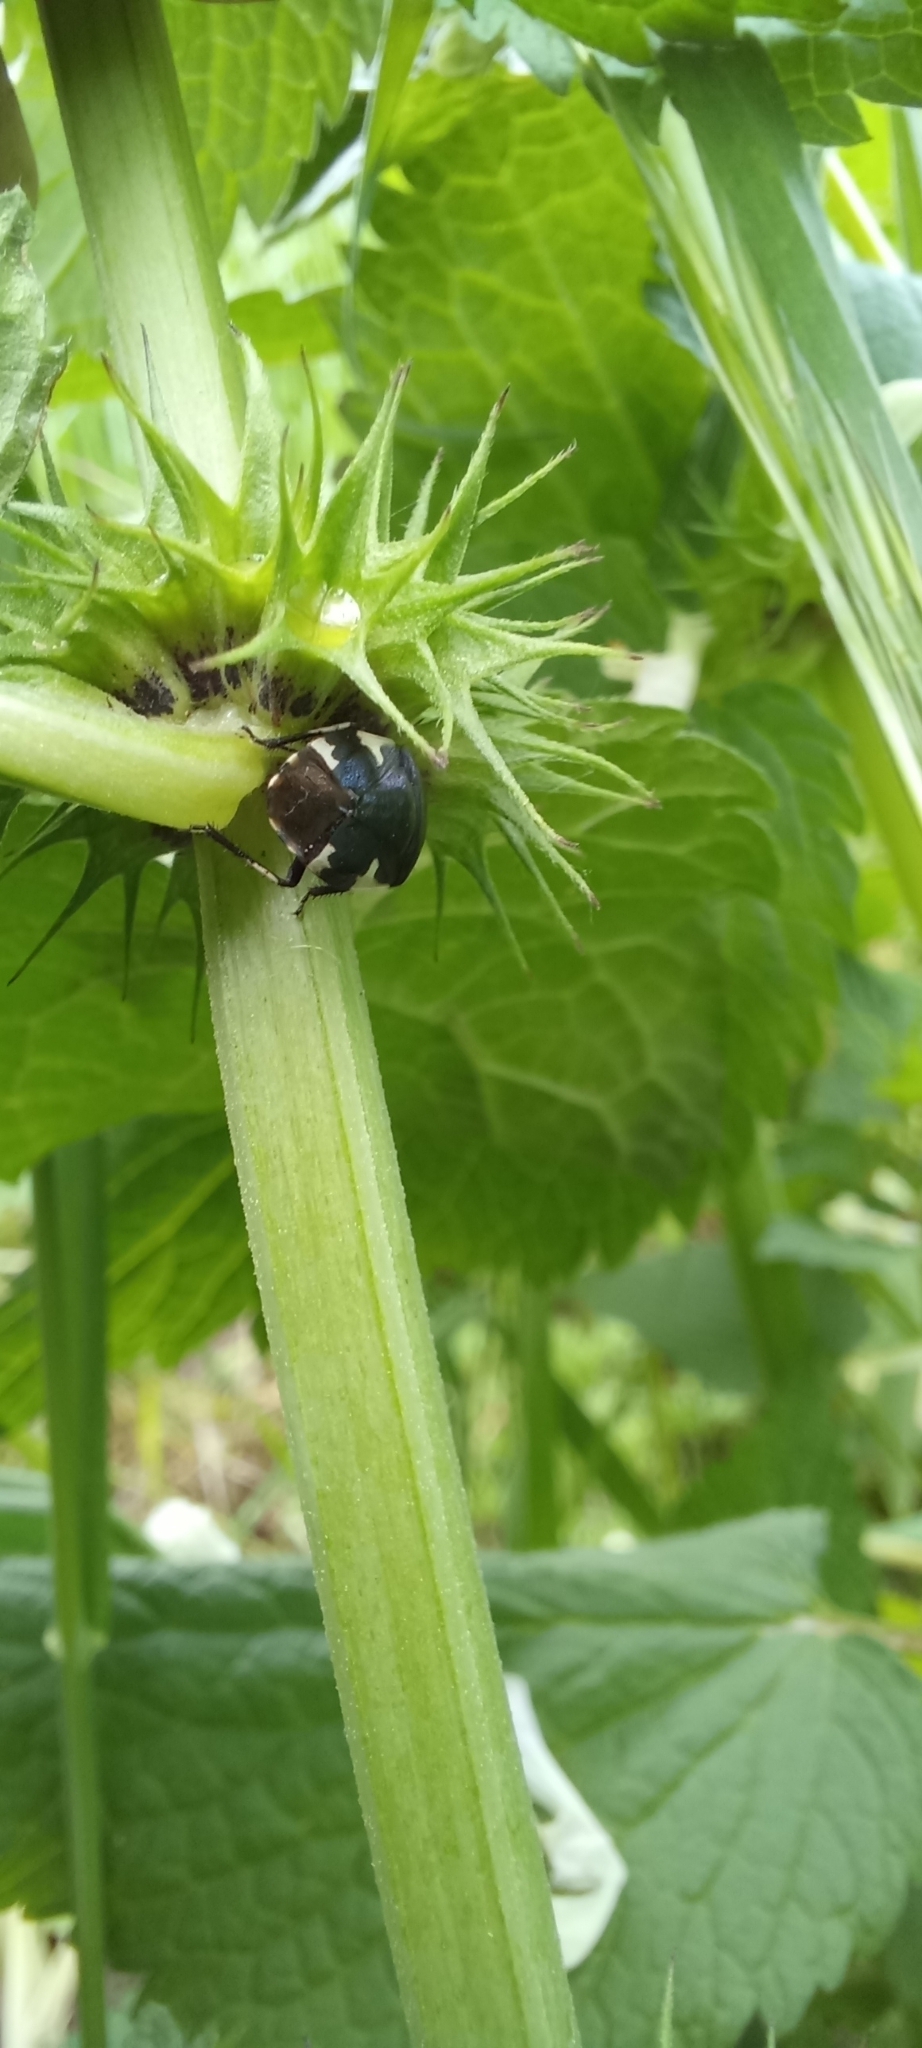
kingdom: Animalia
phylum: Arthropoda
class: Insecta
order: Hemiptera
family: Cydnidae
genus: Tritomegas
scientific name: Tritomegas sexmaculatus
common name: Rambur's pied shieldbug
